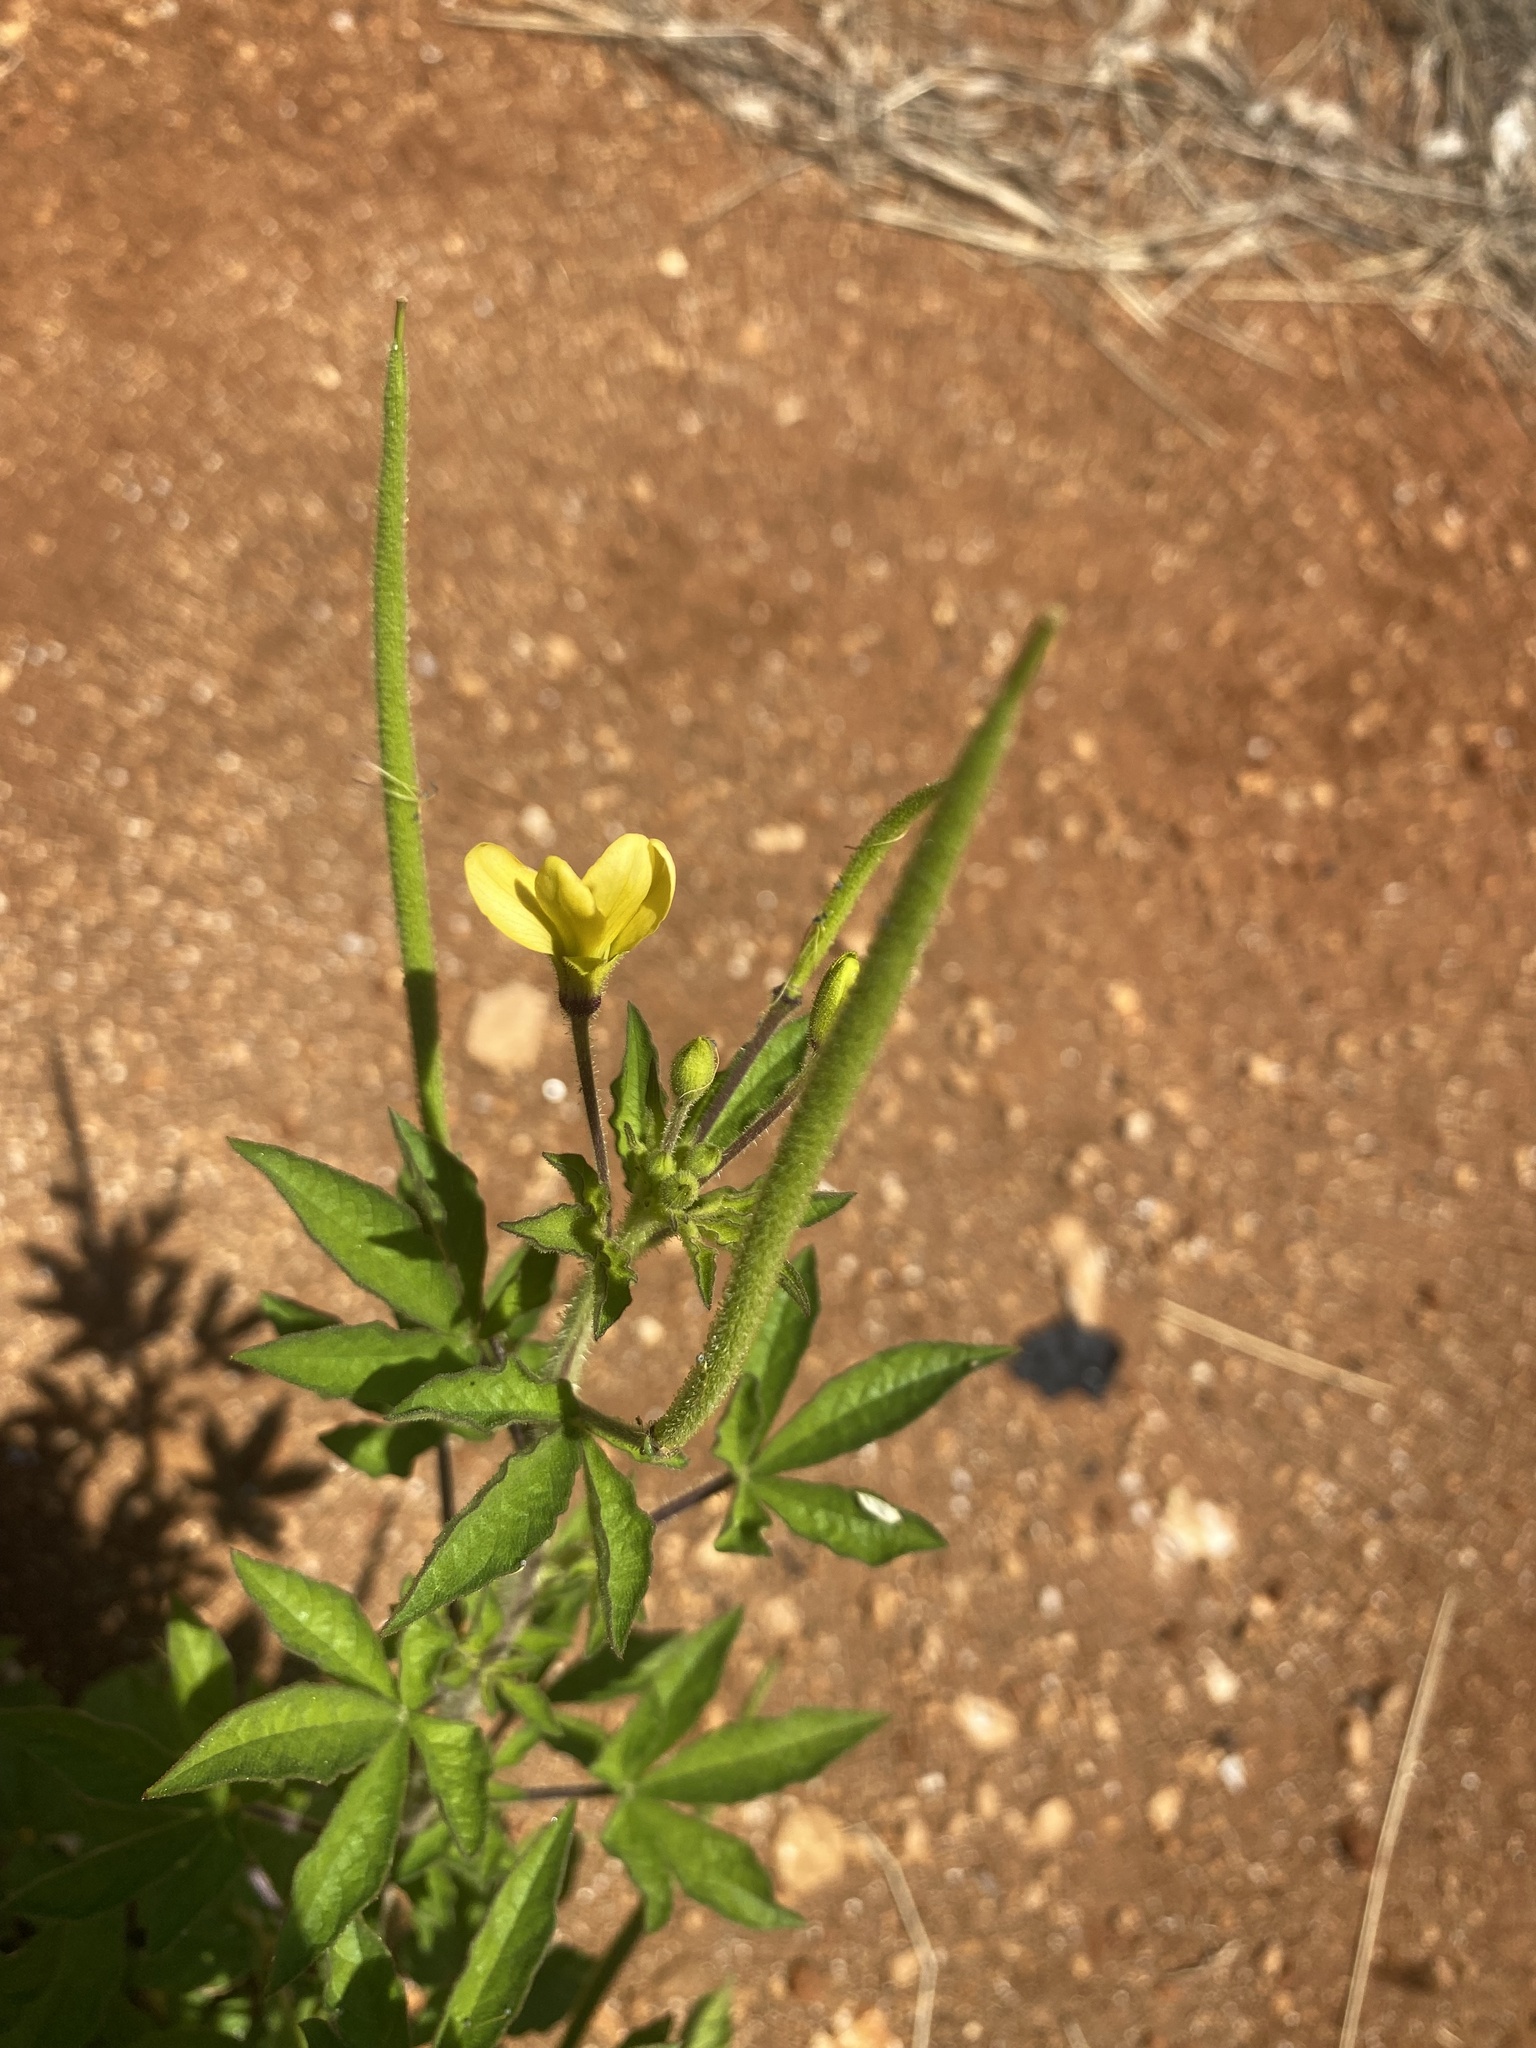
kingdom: Plantae
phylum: Tracheophyta
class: Magnoliopsida
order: Brassicales
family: Cleomaceae
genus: Arivela
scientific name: Arivela viscosa
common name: Asian spiderflower
